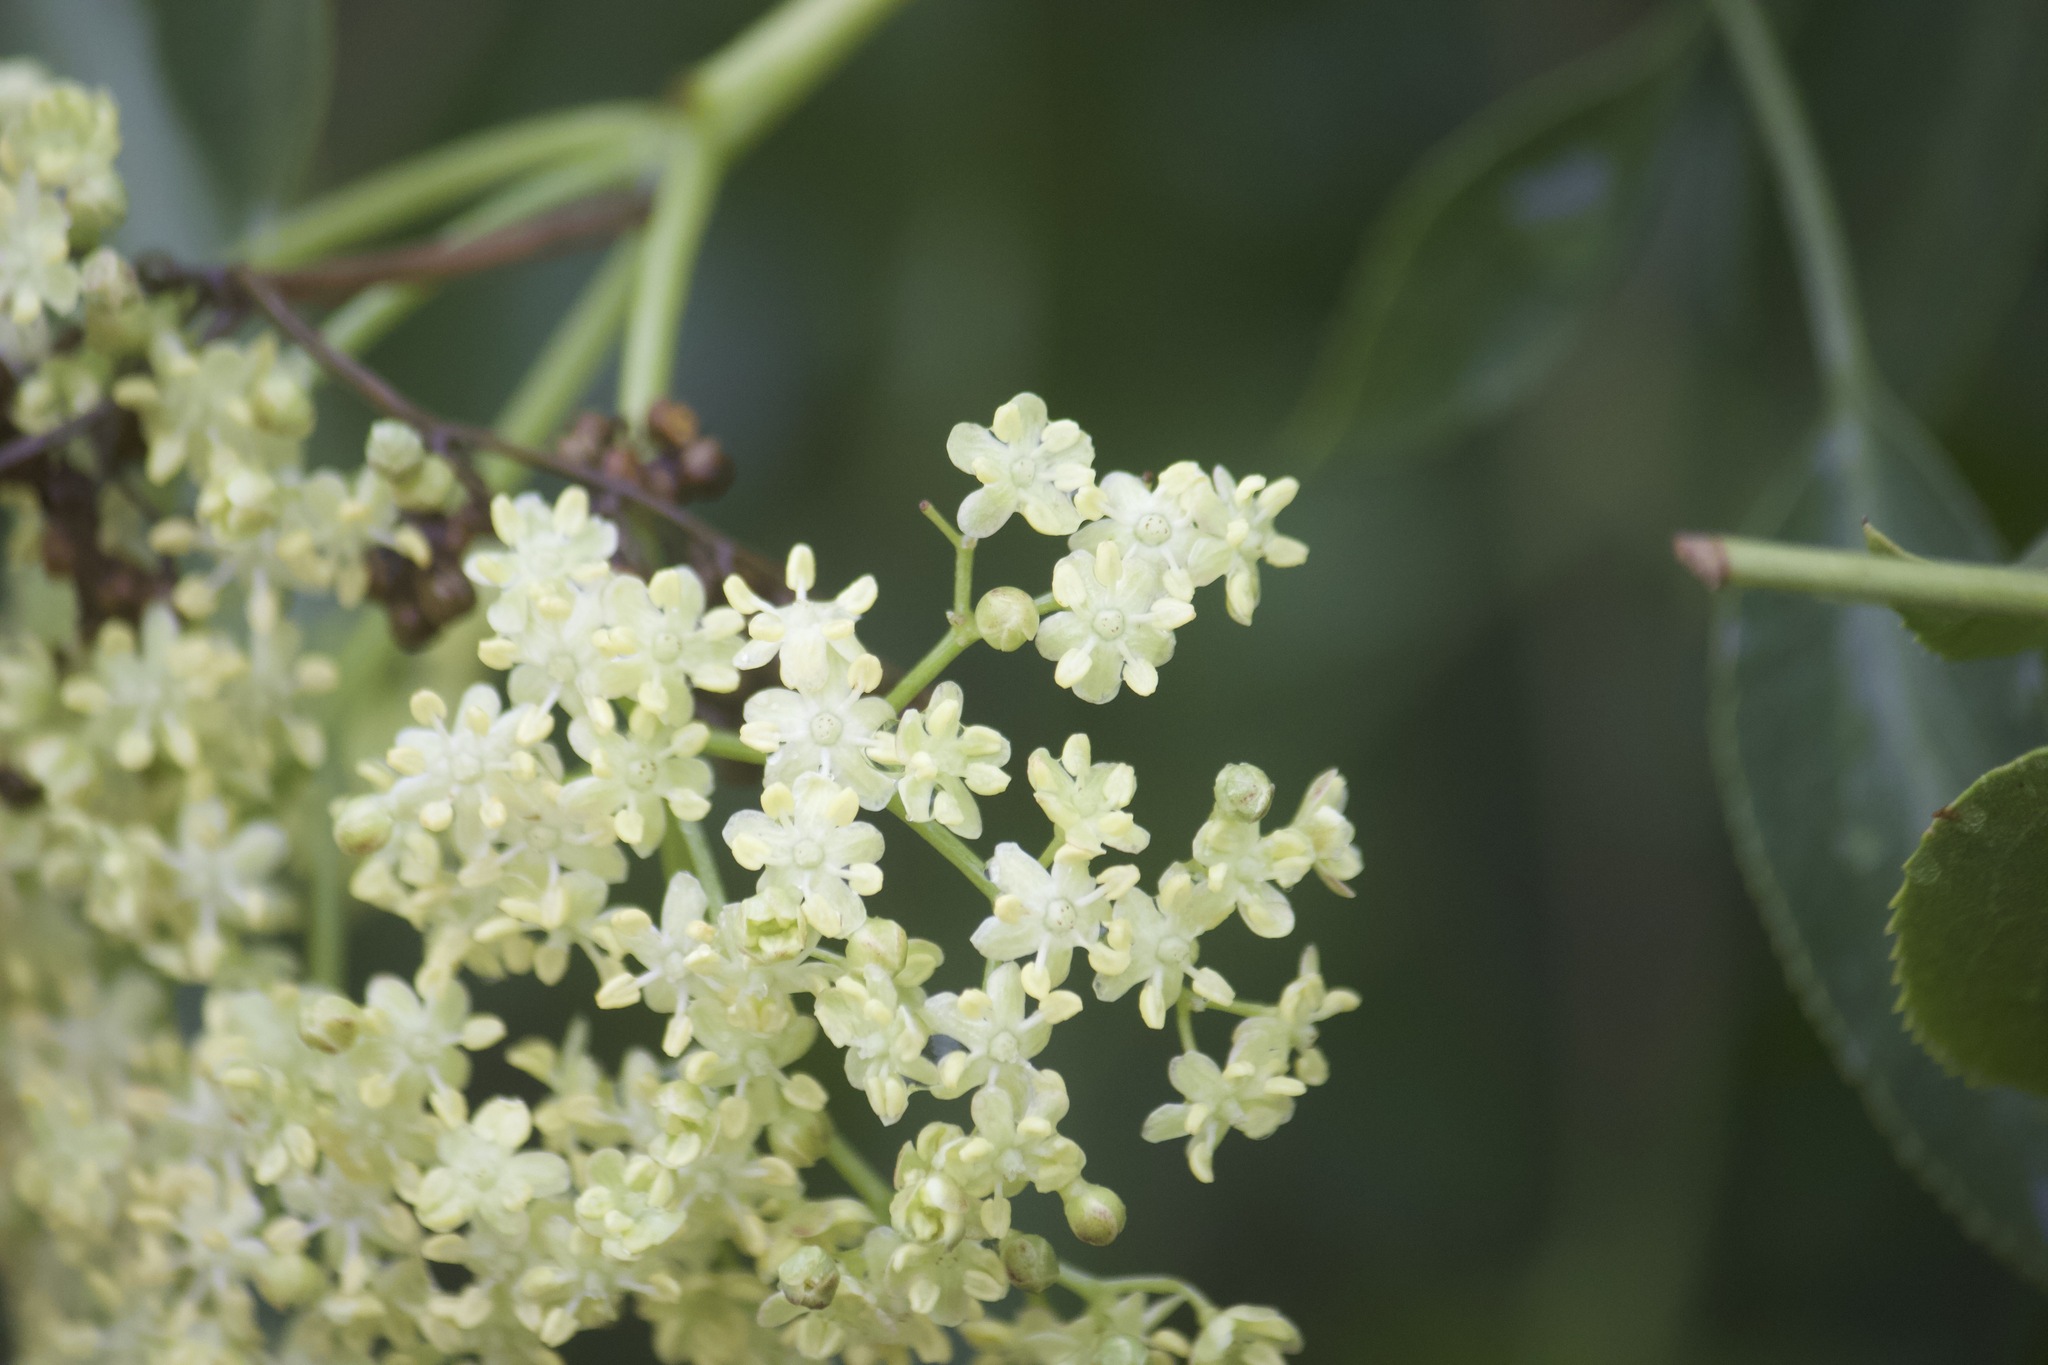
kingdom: Plantae
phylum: Tracheophyta
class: Magnoliopsida
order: Dipsacales
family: Viburnaceae
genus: Sambucus
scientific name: Sambucus cerulea
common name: Blue elder
